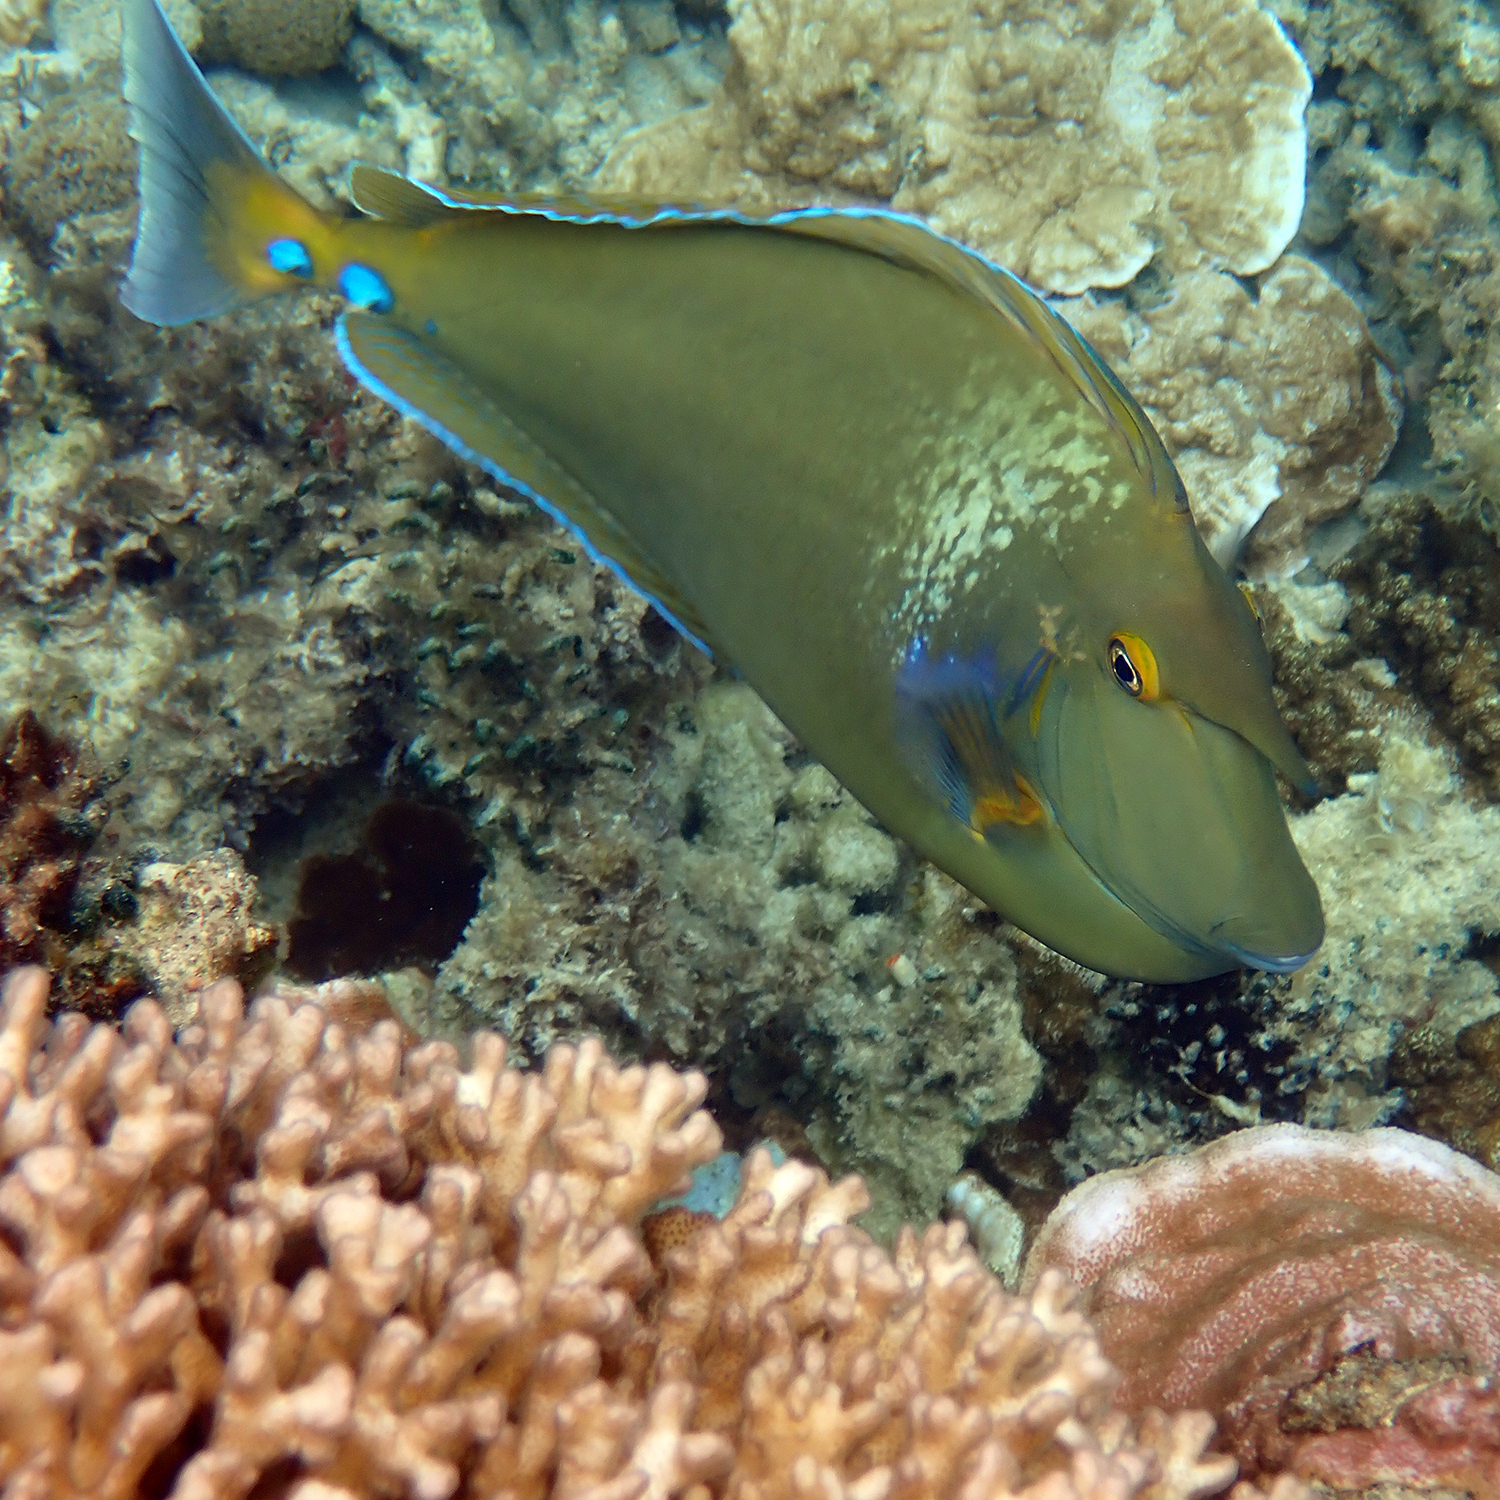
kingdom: Animalia
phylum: Chordata
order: Perciformes
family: Acanthuridae
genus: Naso
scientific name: Naso unicornis
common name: Bluespine unicornfish
